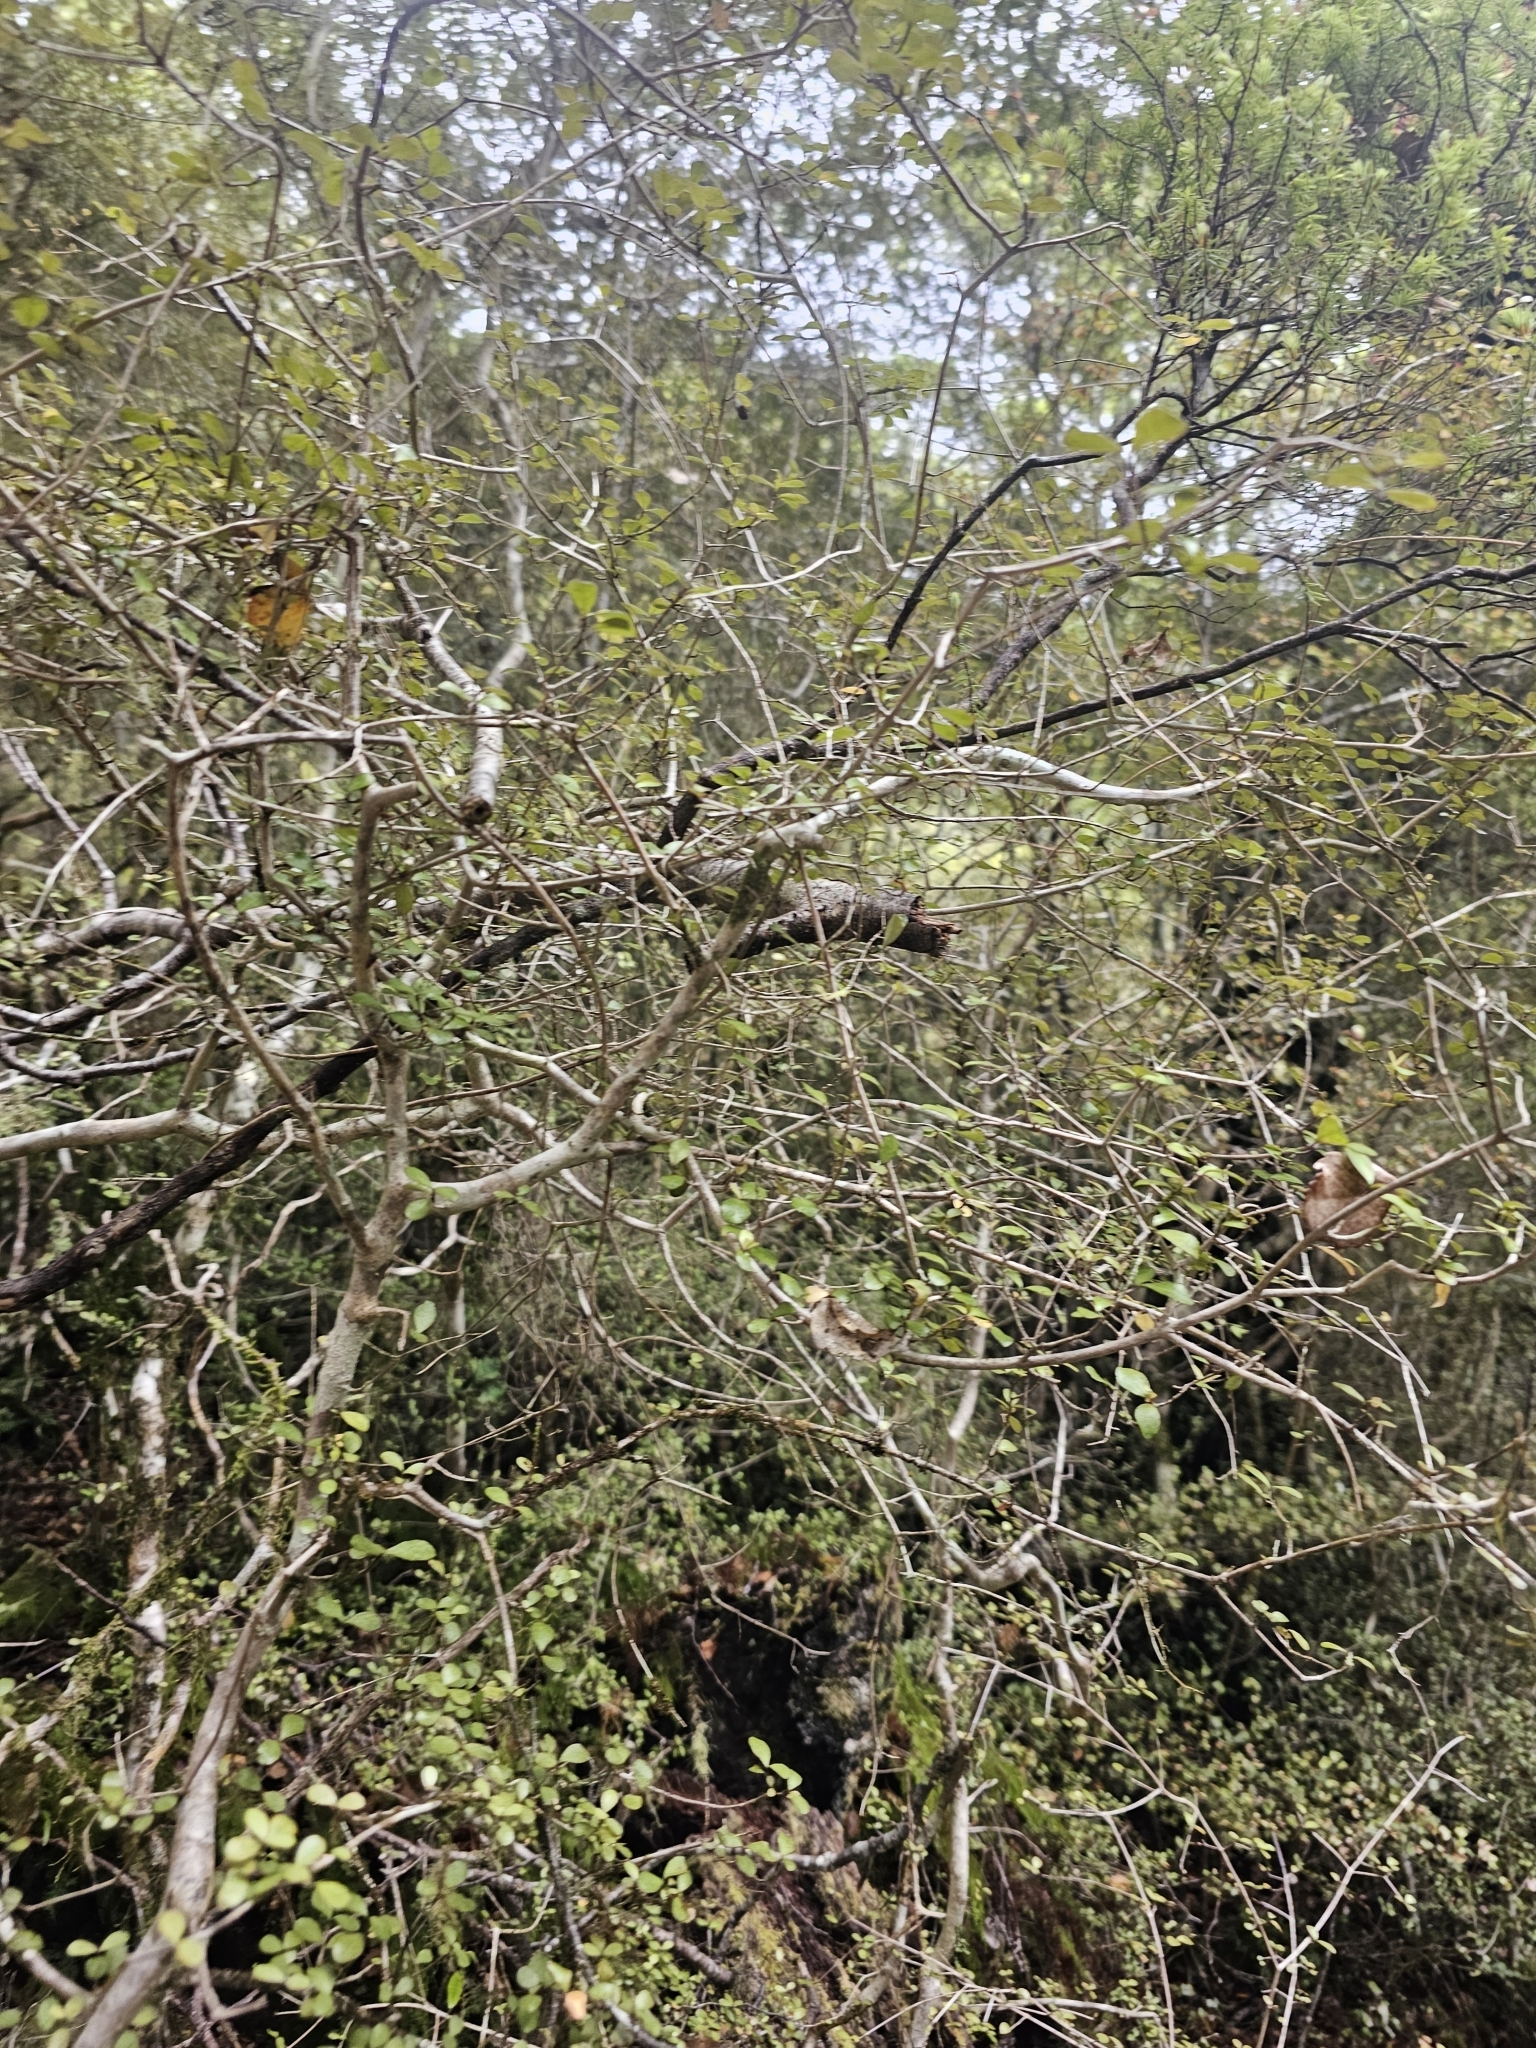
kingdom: Plantae
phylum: Tracheophyta
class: Magnoliopsida
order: Myrtales
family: Myrtaceae
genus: Neomyrtus
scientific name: Neomyrtus pedunculata
